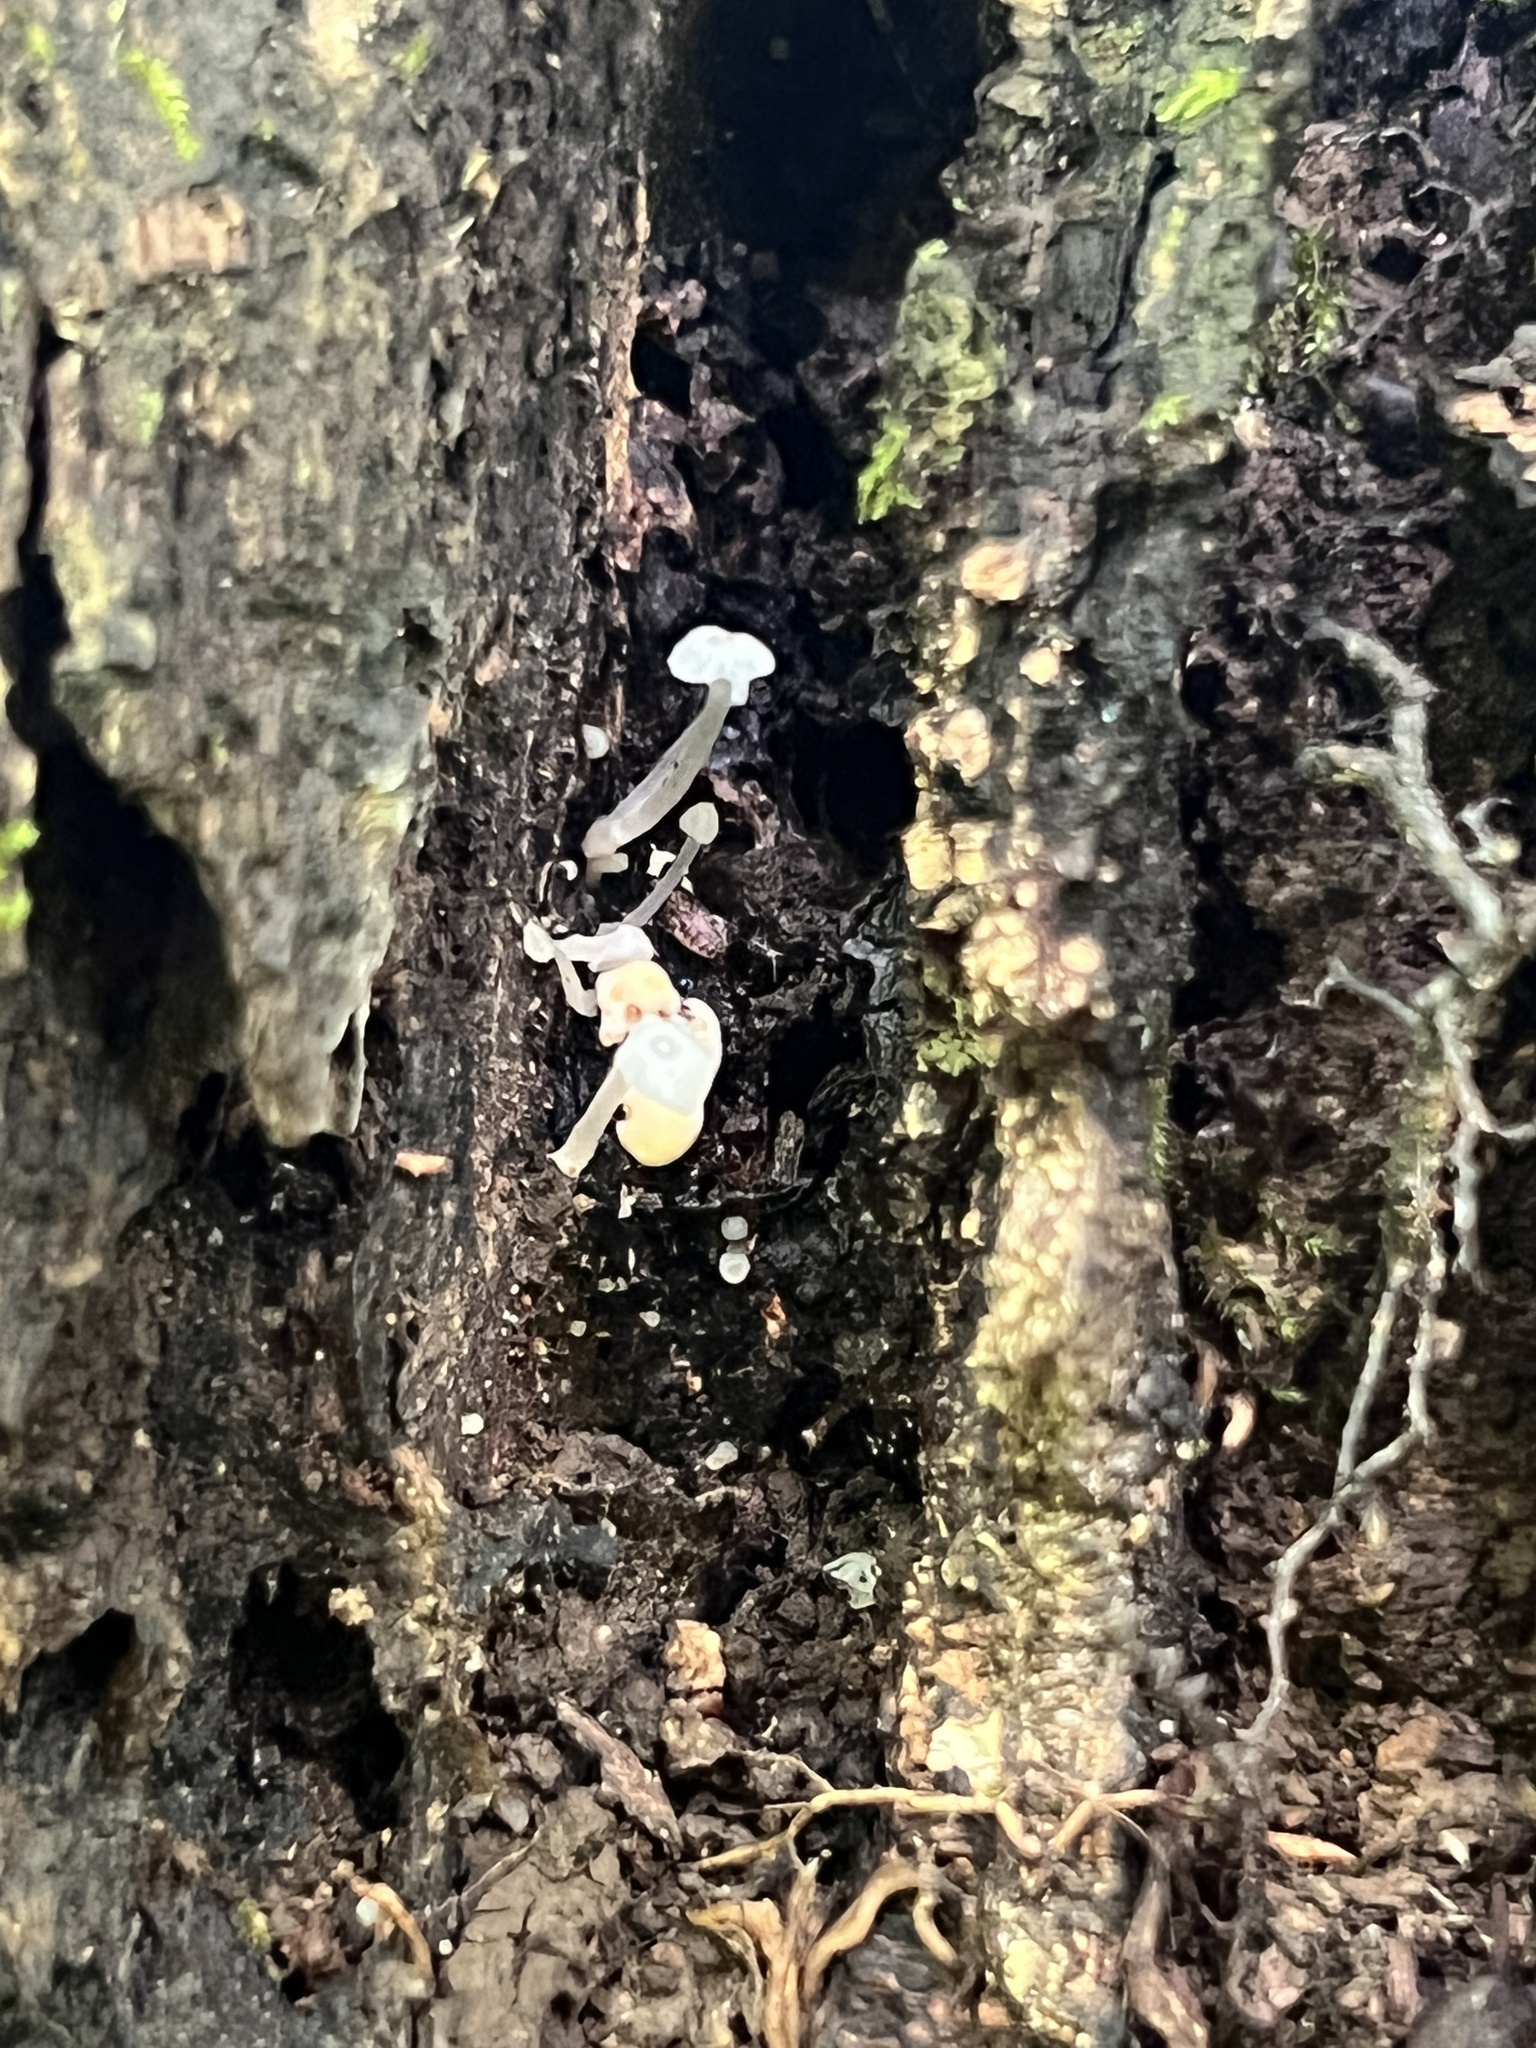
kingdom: Fungi
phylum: Basidiomycota
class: Agaricomycetes
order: Agaricales
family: Tricholomataceae
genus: Delicatula
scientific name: Delicatula integrella
